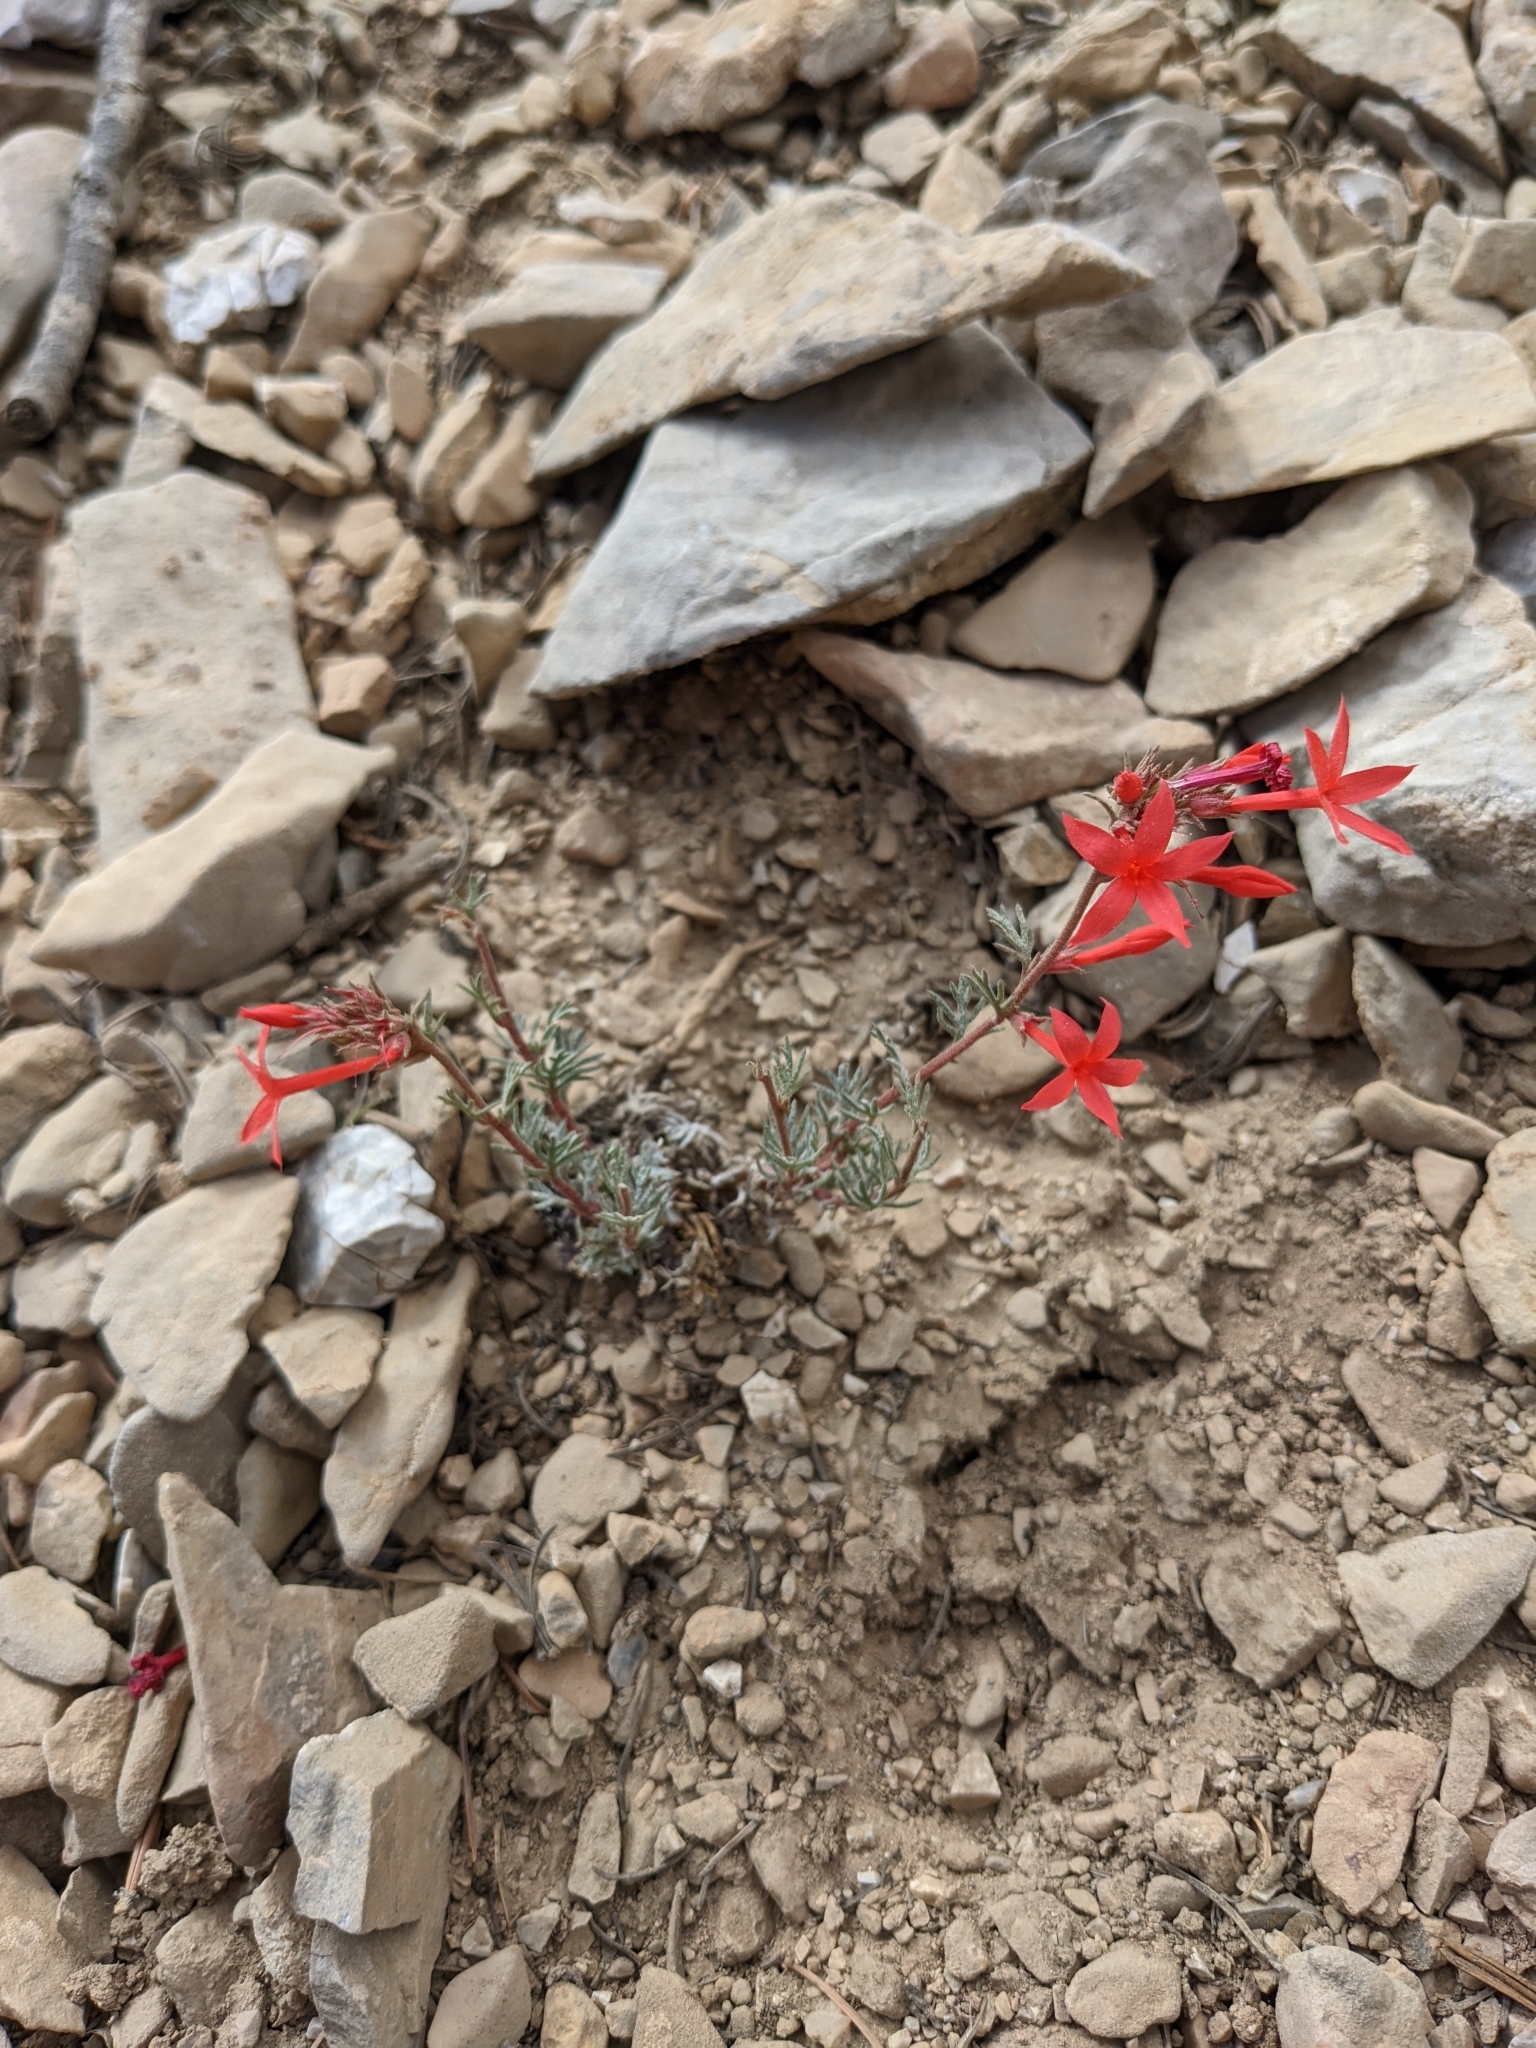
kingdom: Plantae
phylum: Tracheophyta
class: Magnoliopsida
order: Ericales
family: Polemoniaceae
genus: Ipomopsis
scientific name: Ipomopsis arizonica
